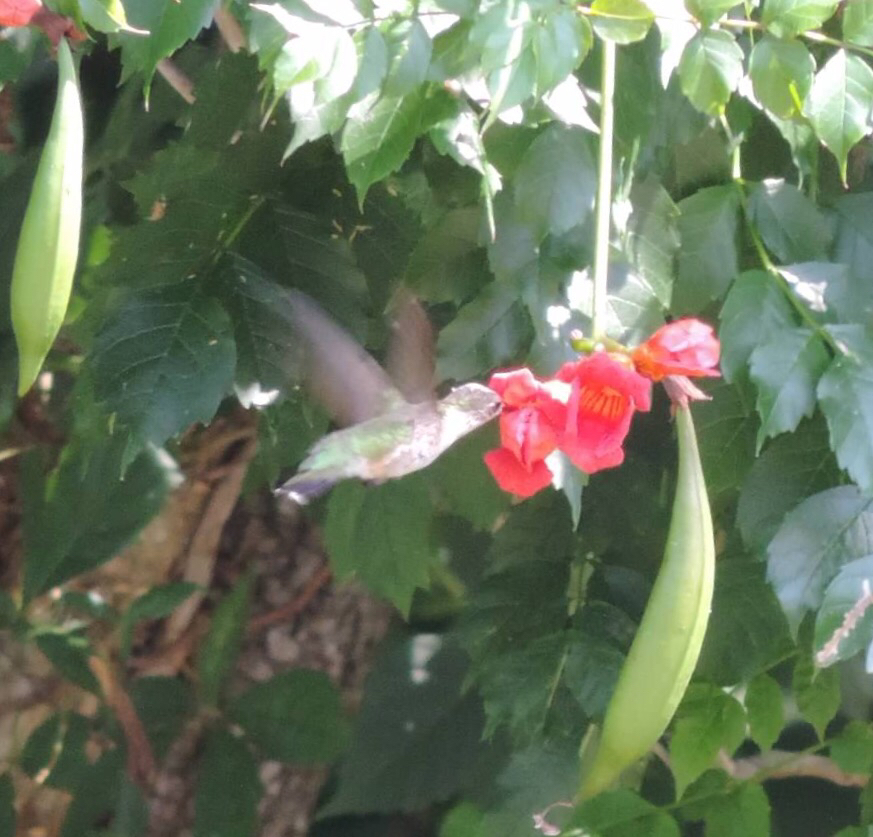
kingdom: Animalia
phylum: Chordata
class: Aves
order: Apodiformes
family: Trochilidae
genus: Archilochus
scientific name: Archilochus colubris
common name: Ruby-throated hummingbird
